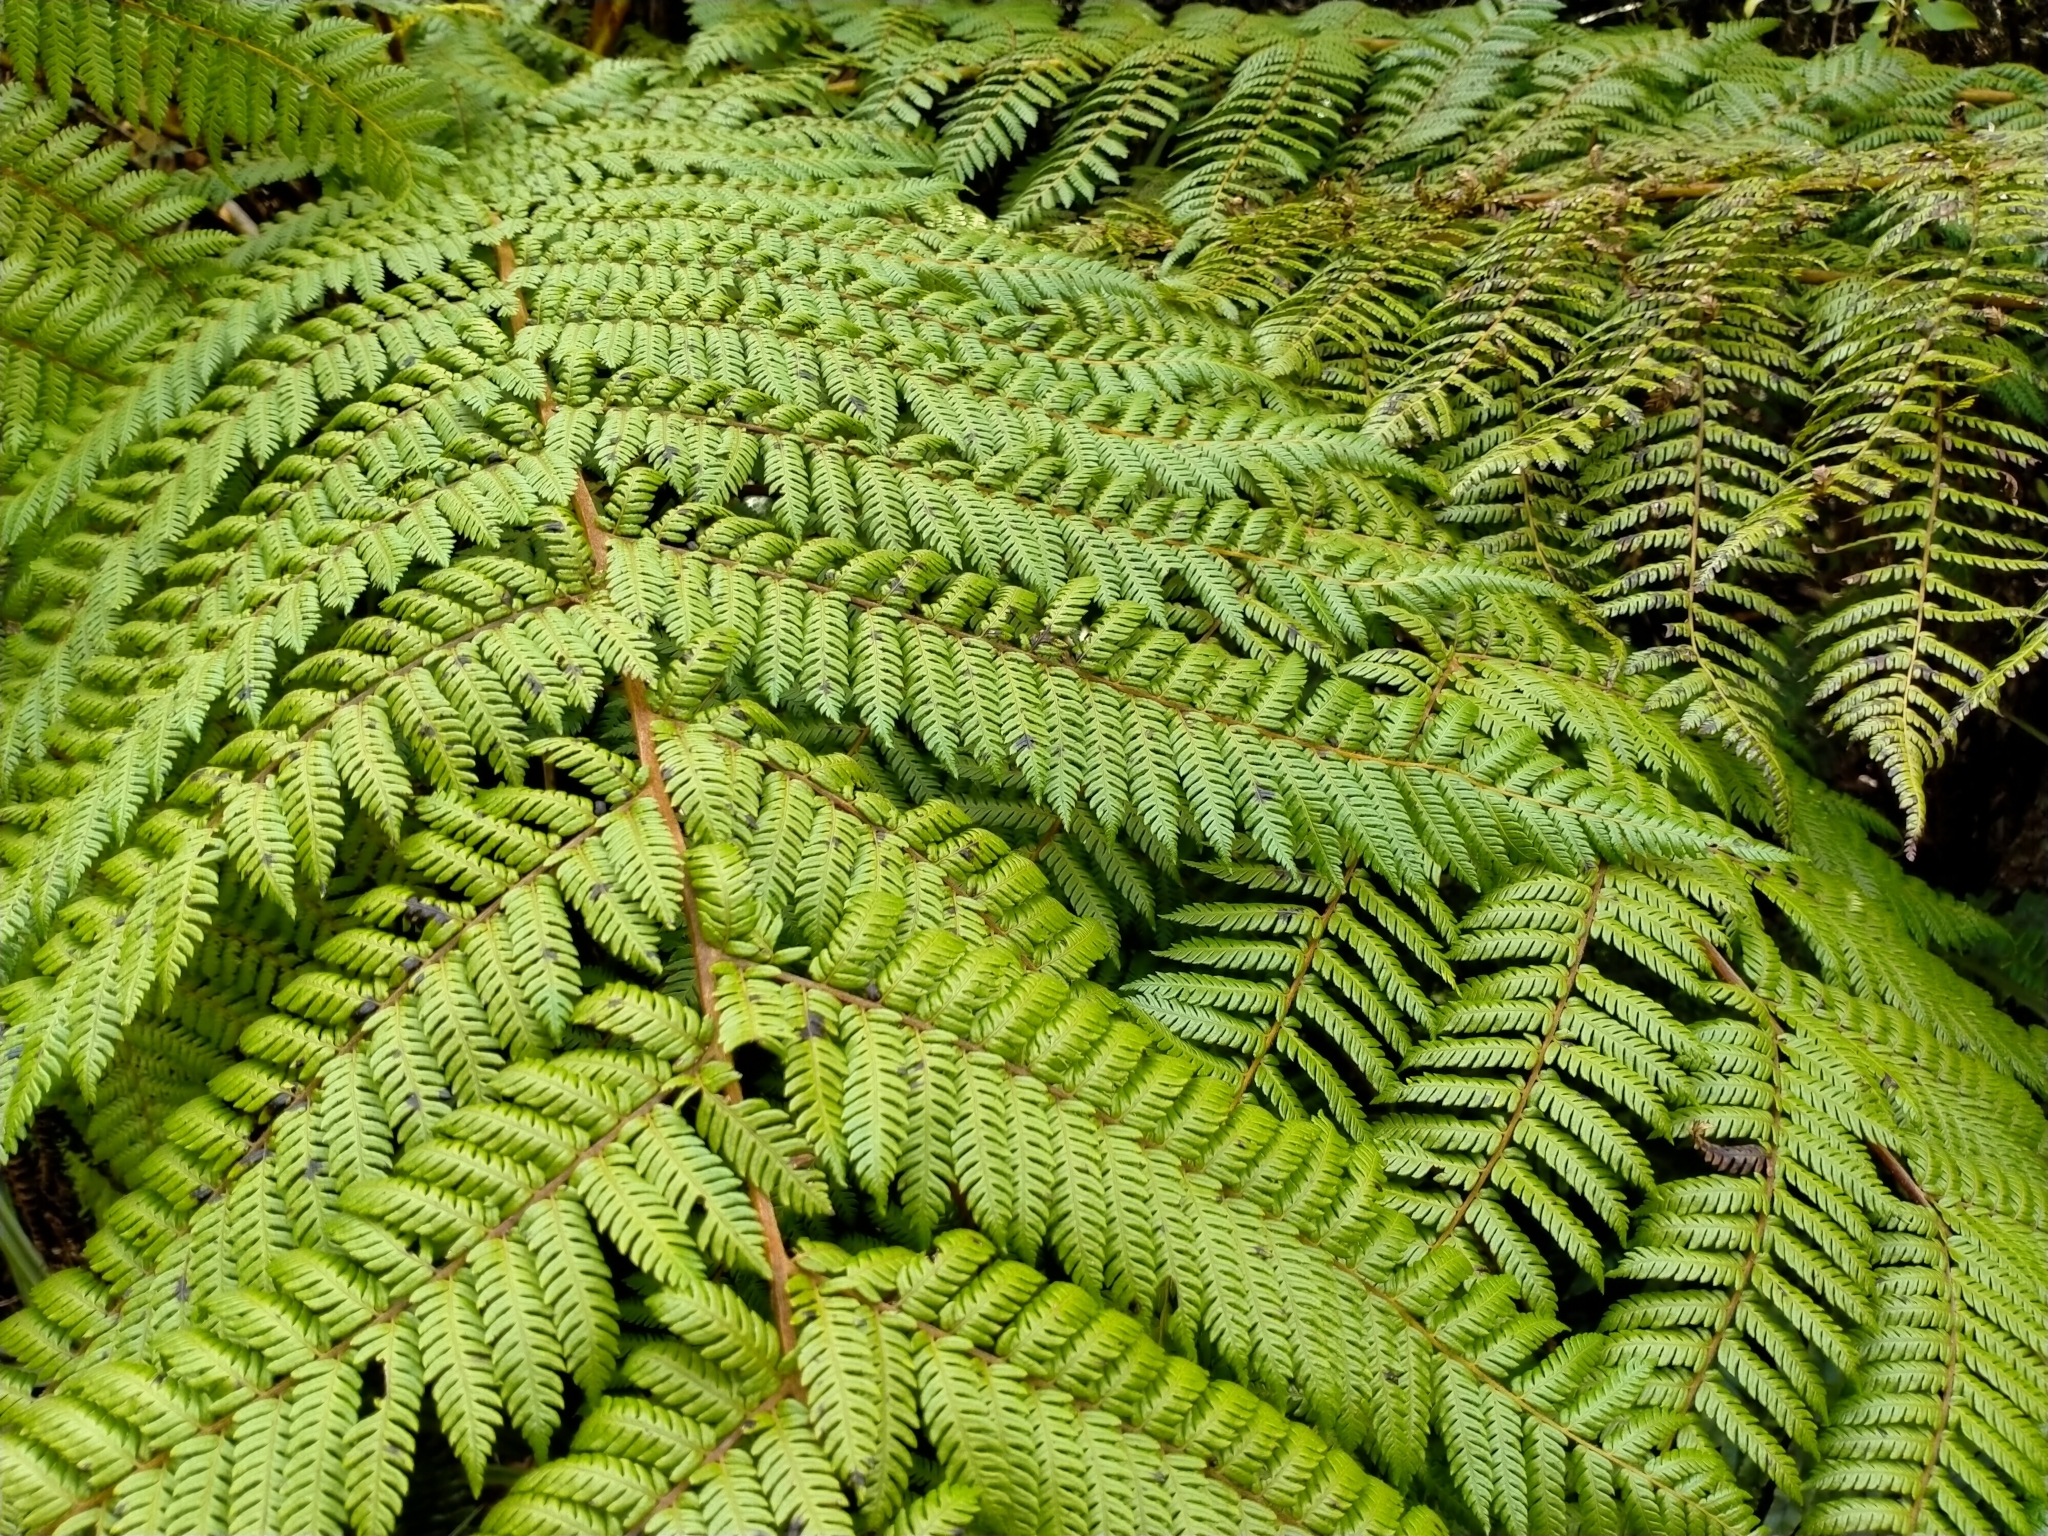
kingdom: Plantae
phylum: Tracheophyta
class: Polypodiopsida
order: Cyatheales
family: Cyatheaceae
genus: Alsophila
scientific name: Alsophila smithii
